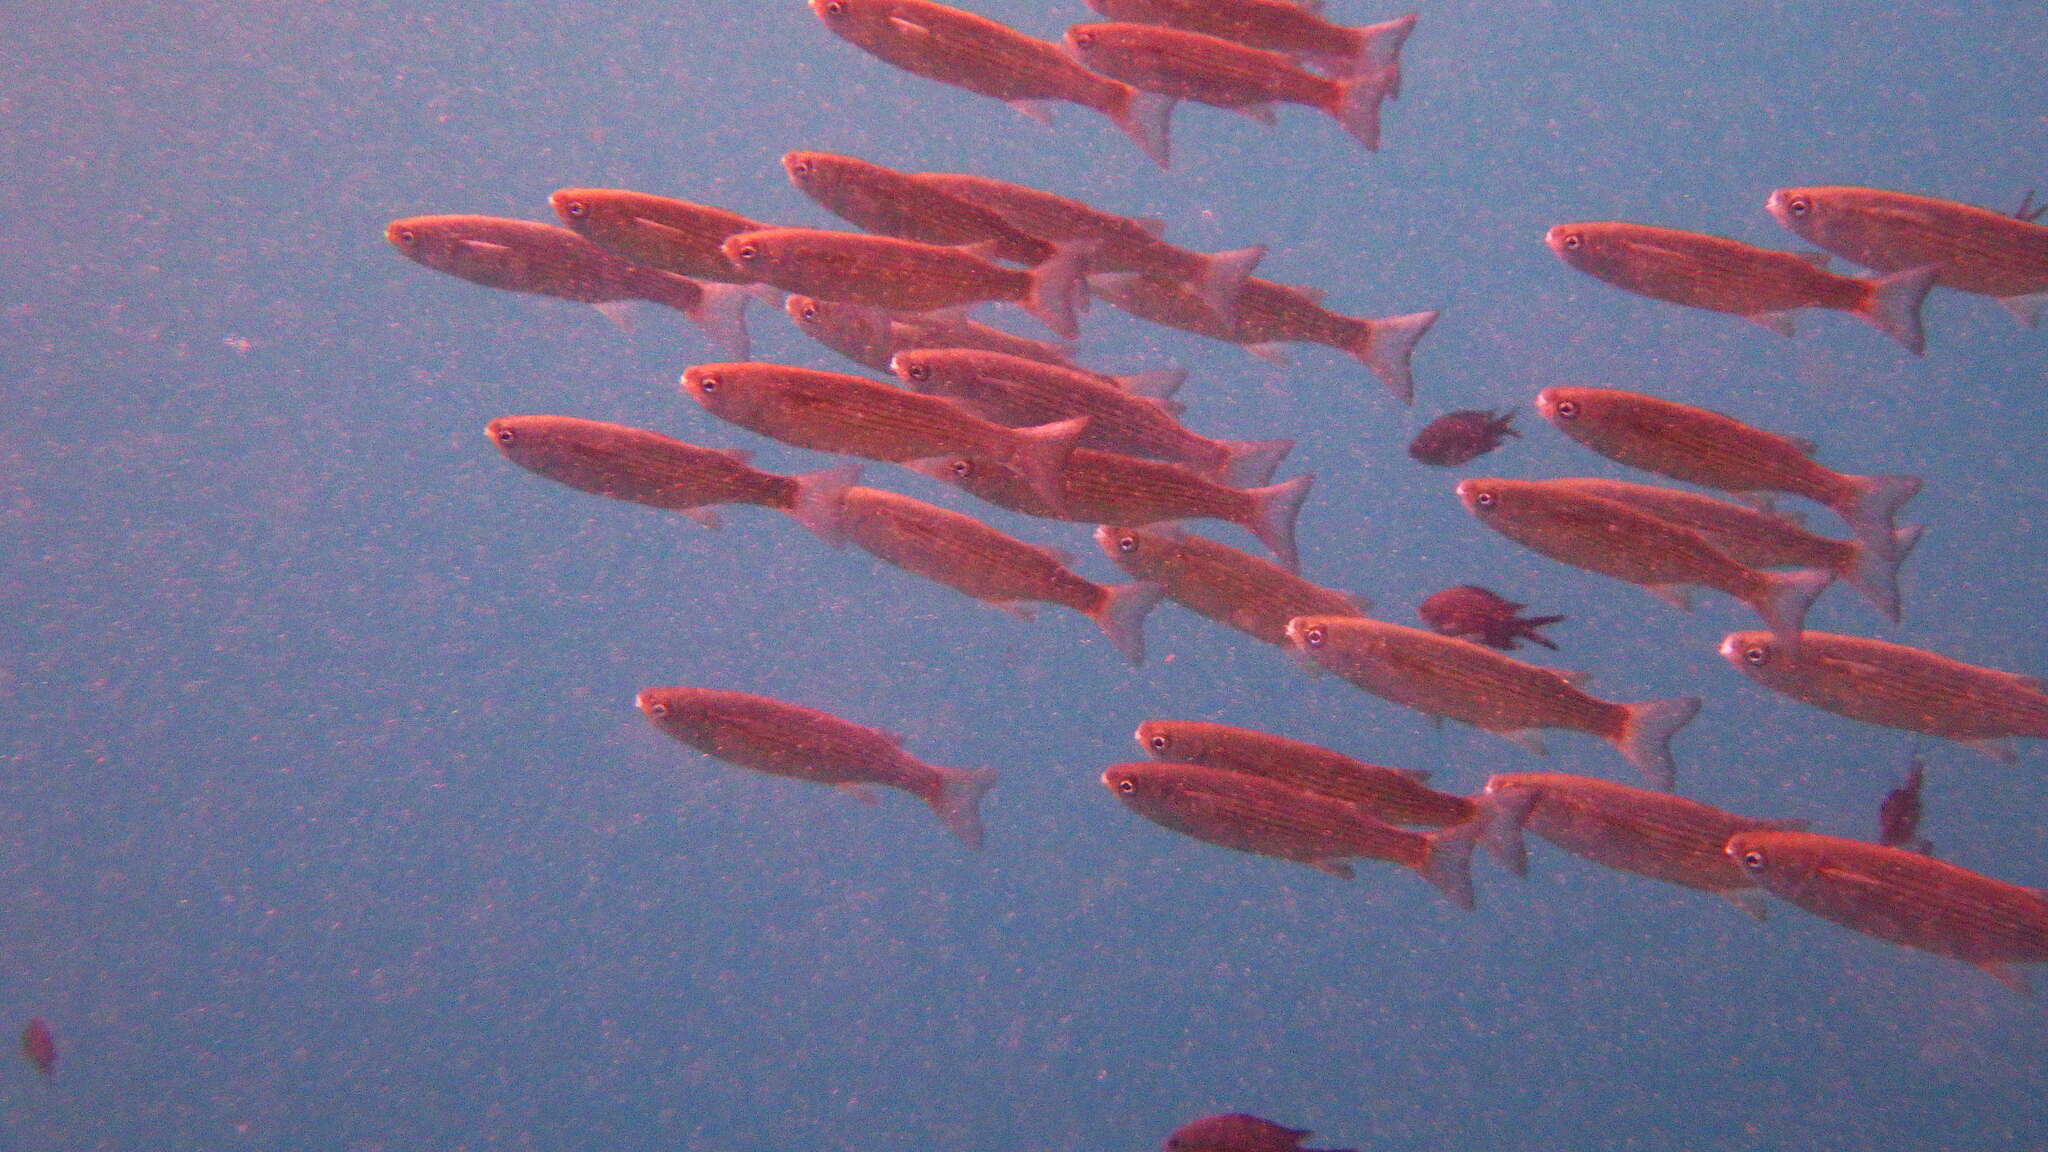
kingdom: Animalia
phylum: Chordata
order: Mugiliformes
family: Mugilidae
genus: Oedalechilus
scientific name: Oedalechilus labeo
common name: Boxlip mullet
